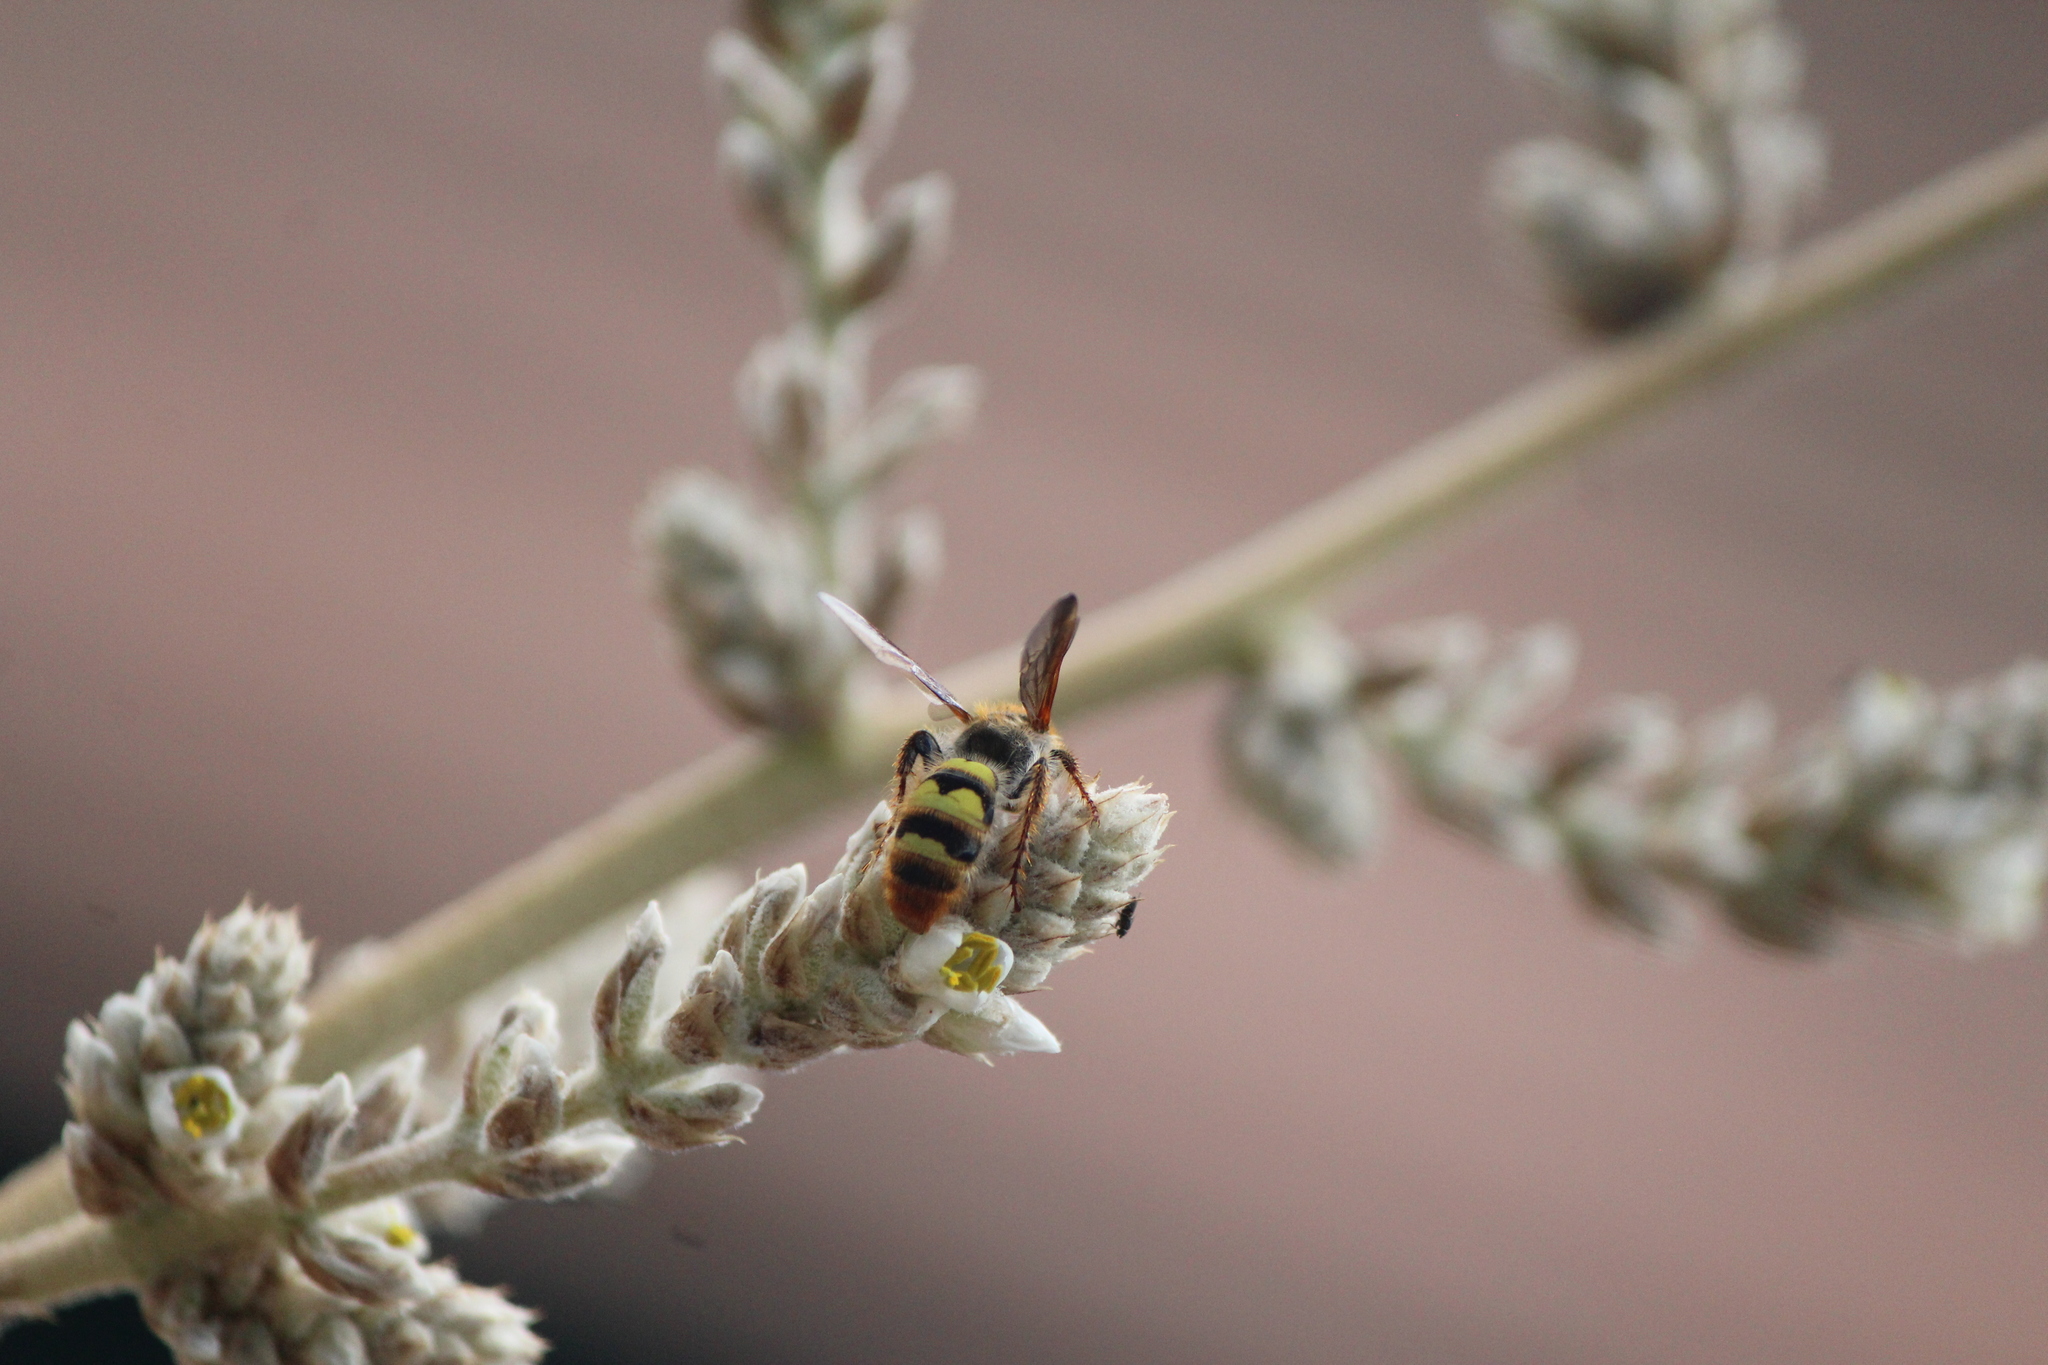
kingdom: Animalia
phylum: Arthropoda
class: Insecta
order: Hymenoptera
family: Scoliidae
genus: Xanthocampsomeris
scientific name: Xanthocampsomeris completa
